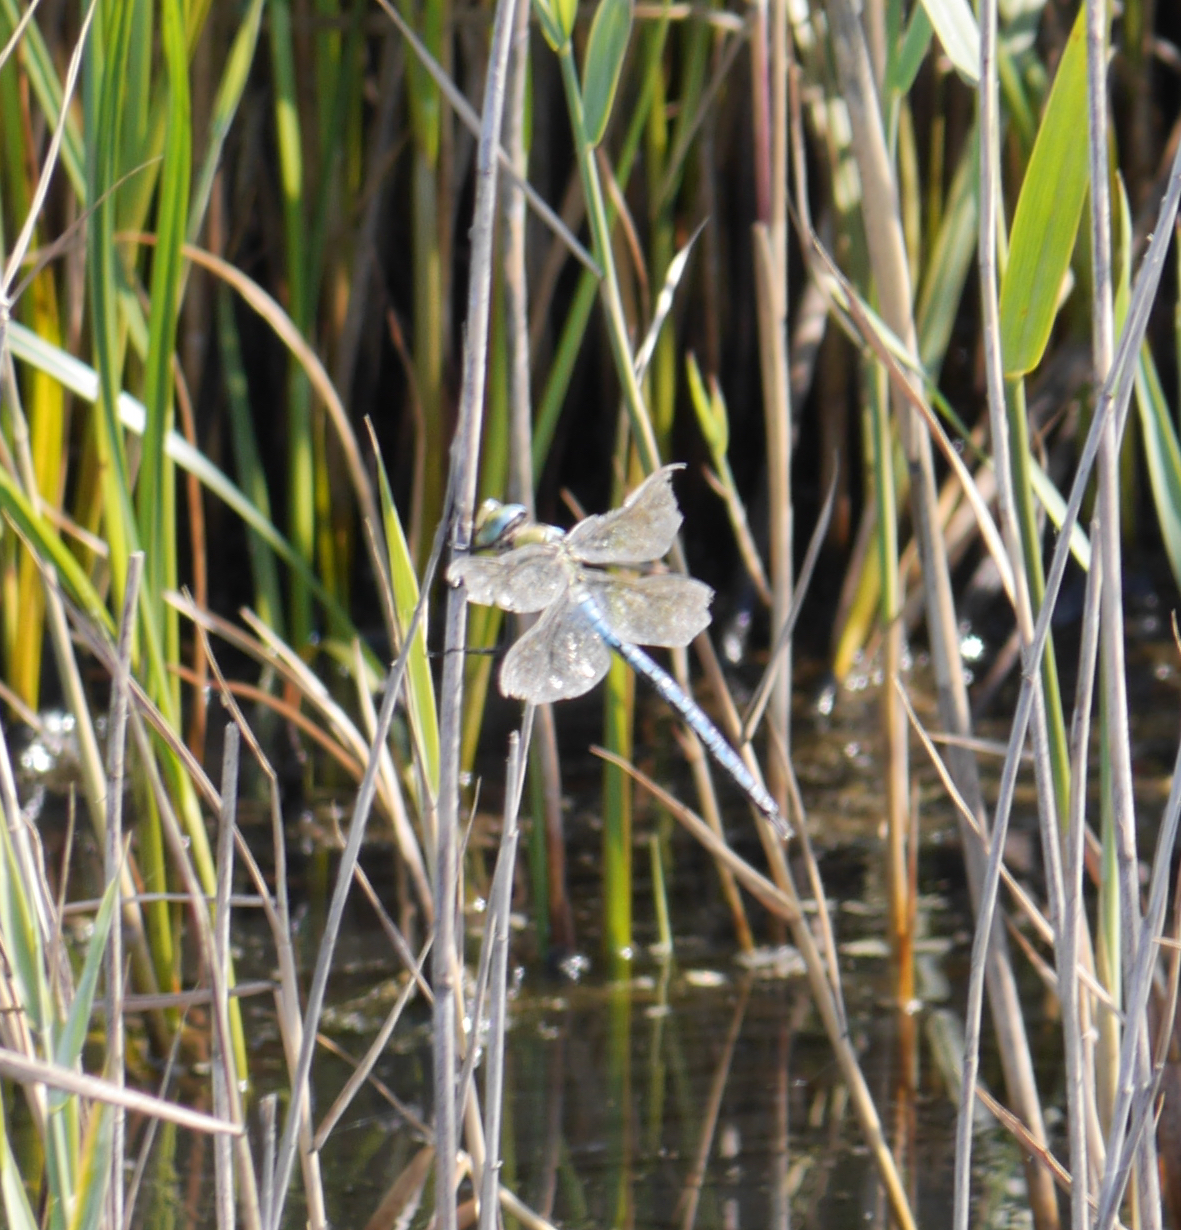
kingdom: Animalia
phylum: Arthropoda
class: Insecta
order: Odonata
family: Aeshnidae
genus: Anax
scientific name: Anax imperator
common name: Emperor dragonfly
